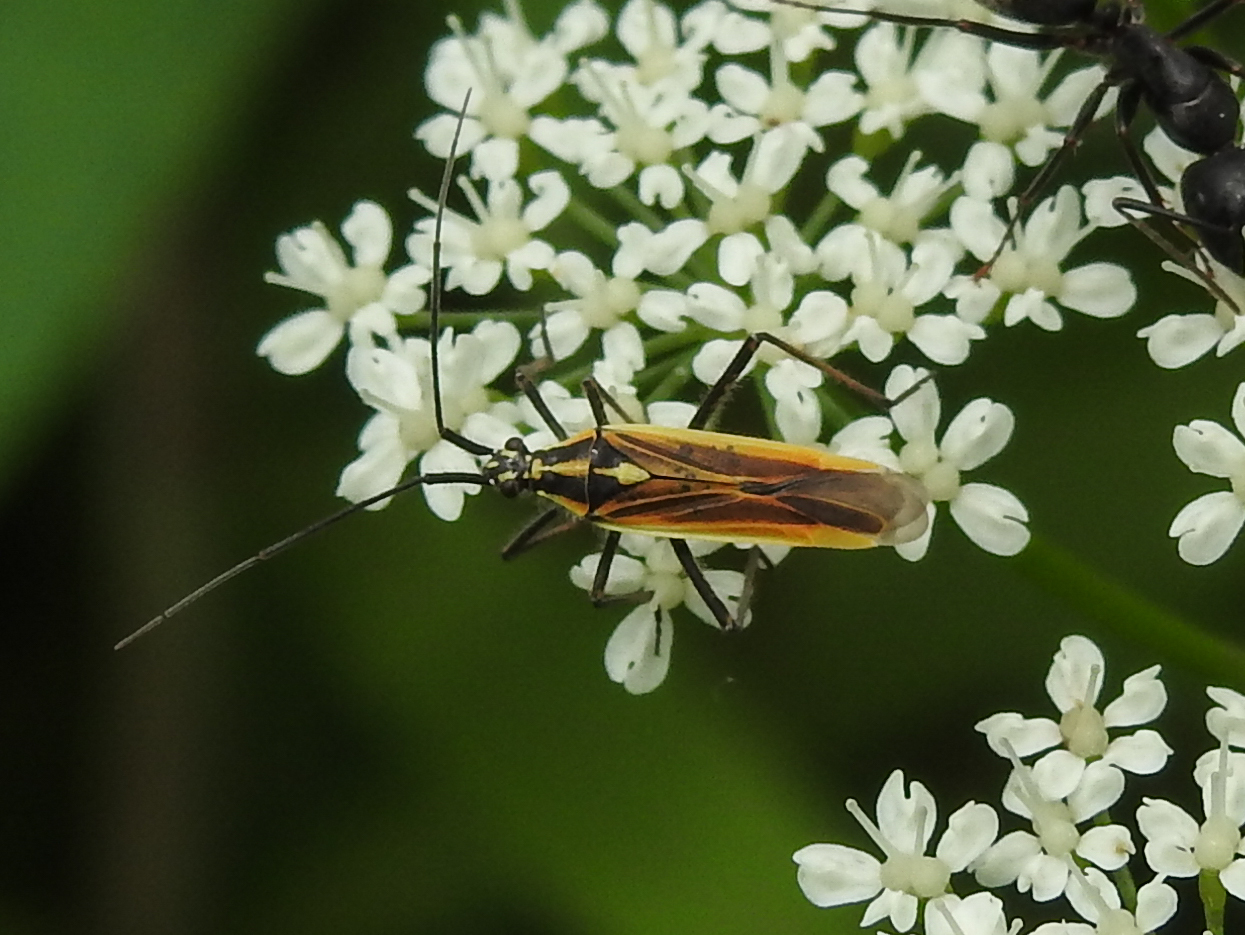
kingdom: Animalia
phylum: Arthropoda
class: Insecta
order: Hemiptera
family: Miridae
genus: Leptopterna
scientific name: Leptopterna dolabrata
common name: Meadow plant bug
